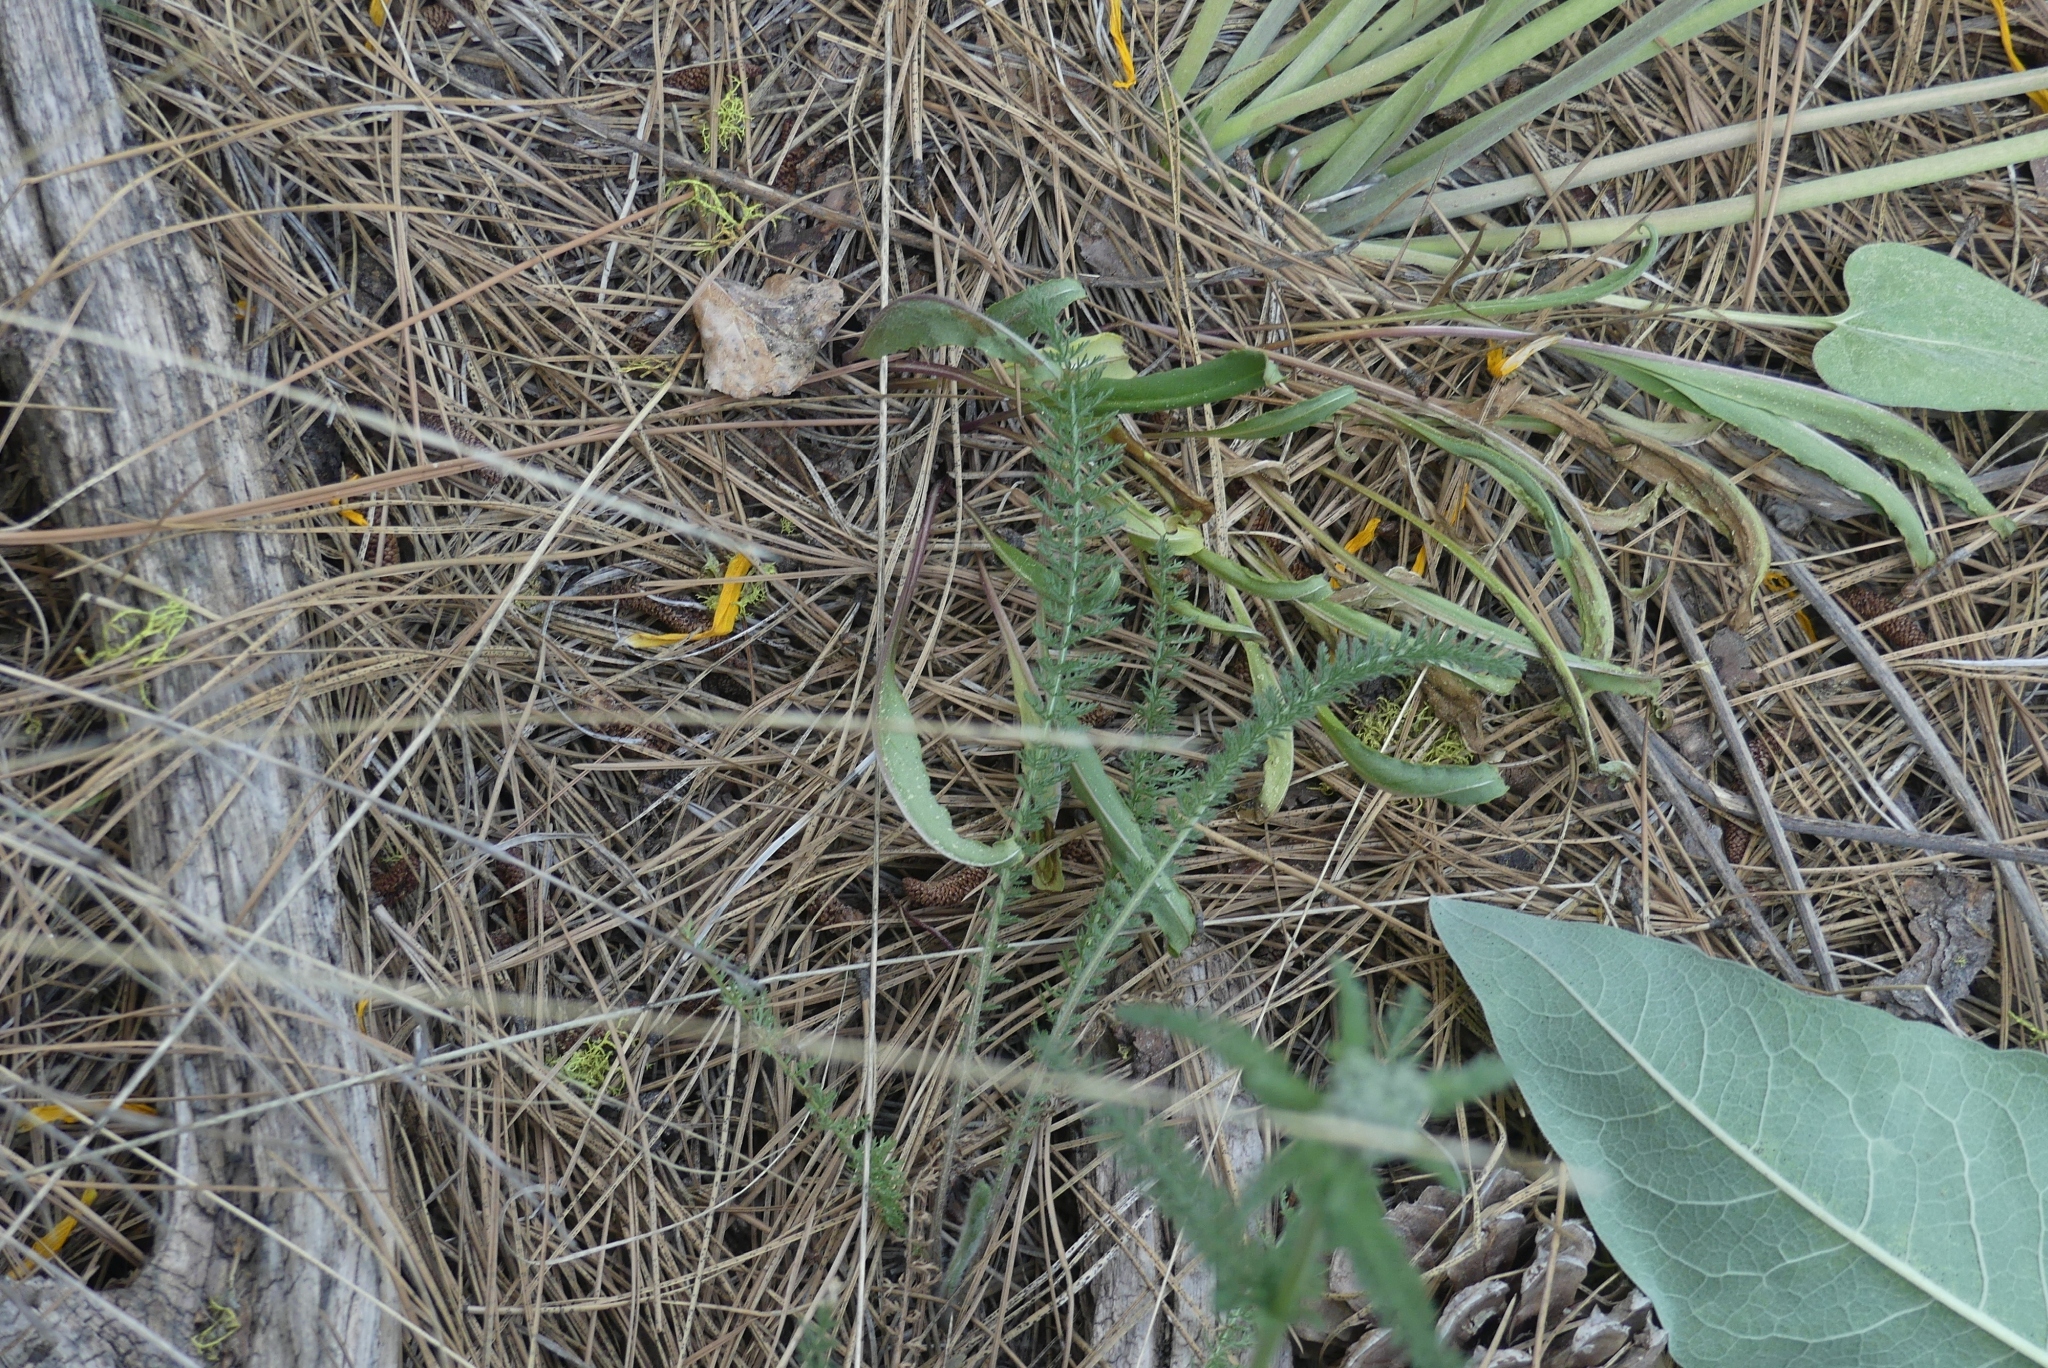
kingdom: Plantae
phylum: Tracheophyta
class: Magnoliopsida
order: Asterales
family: Asteraceae
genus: Achillea
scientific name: Achillea millefolium
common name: Yarrow
